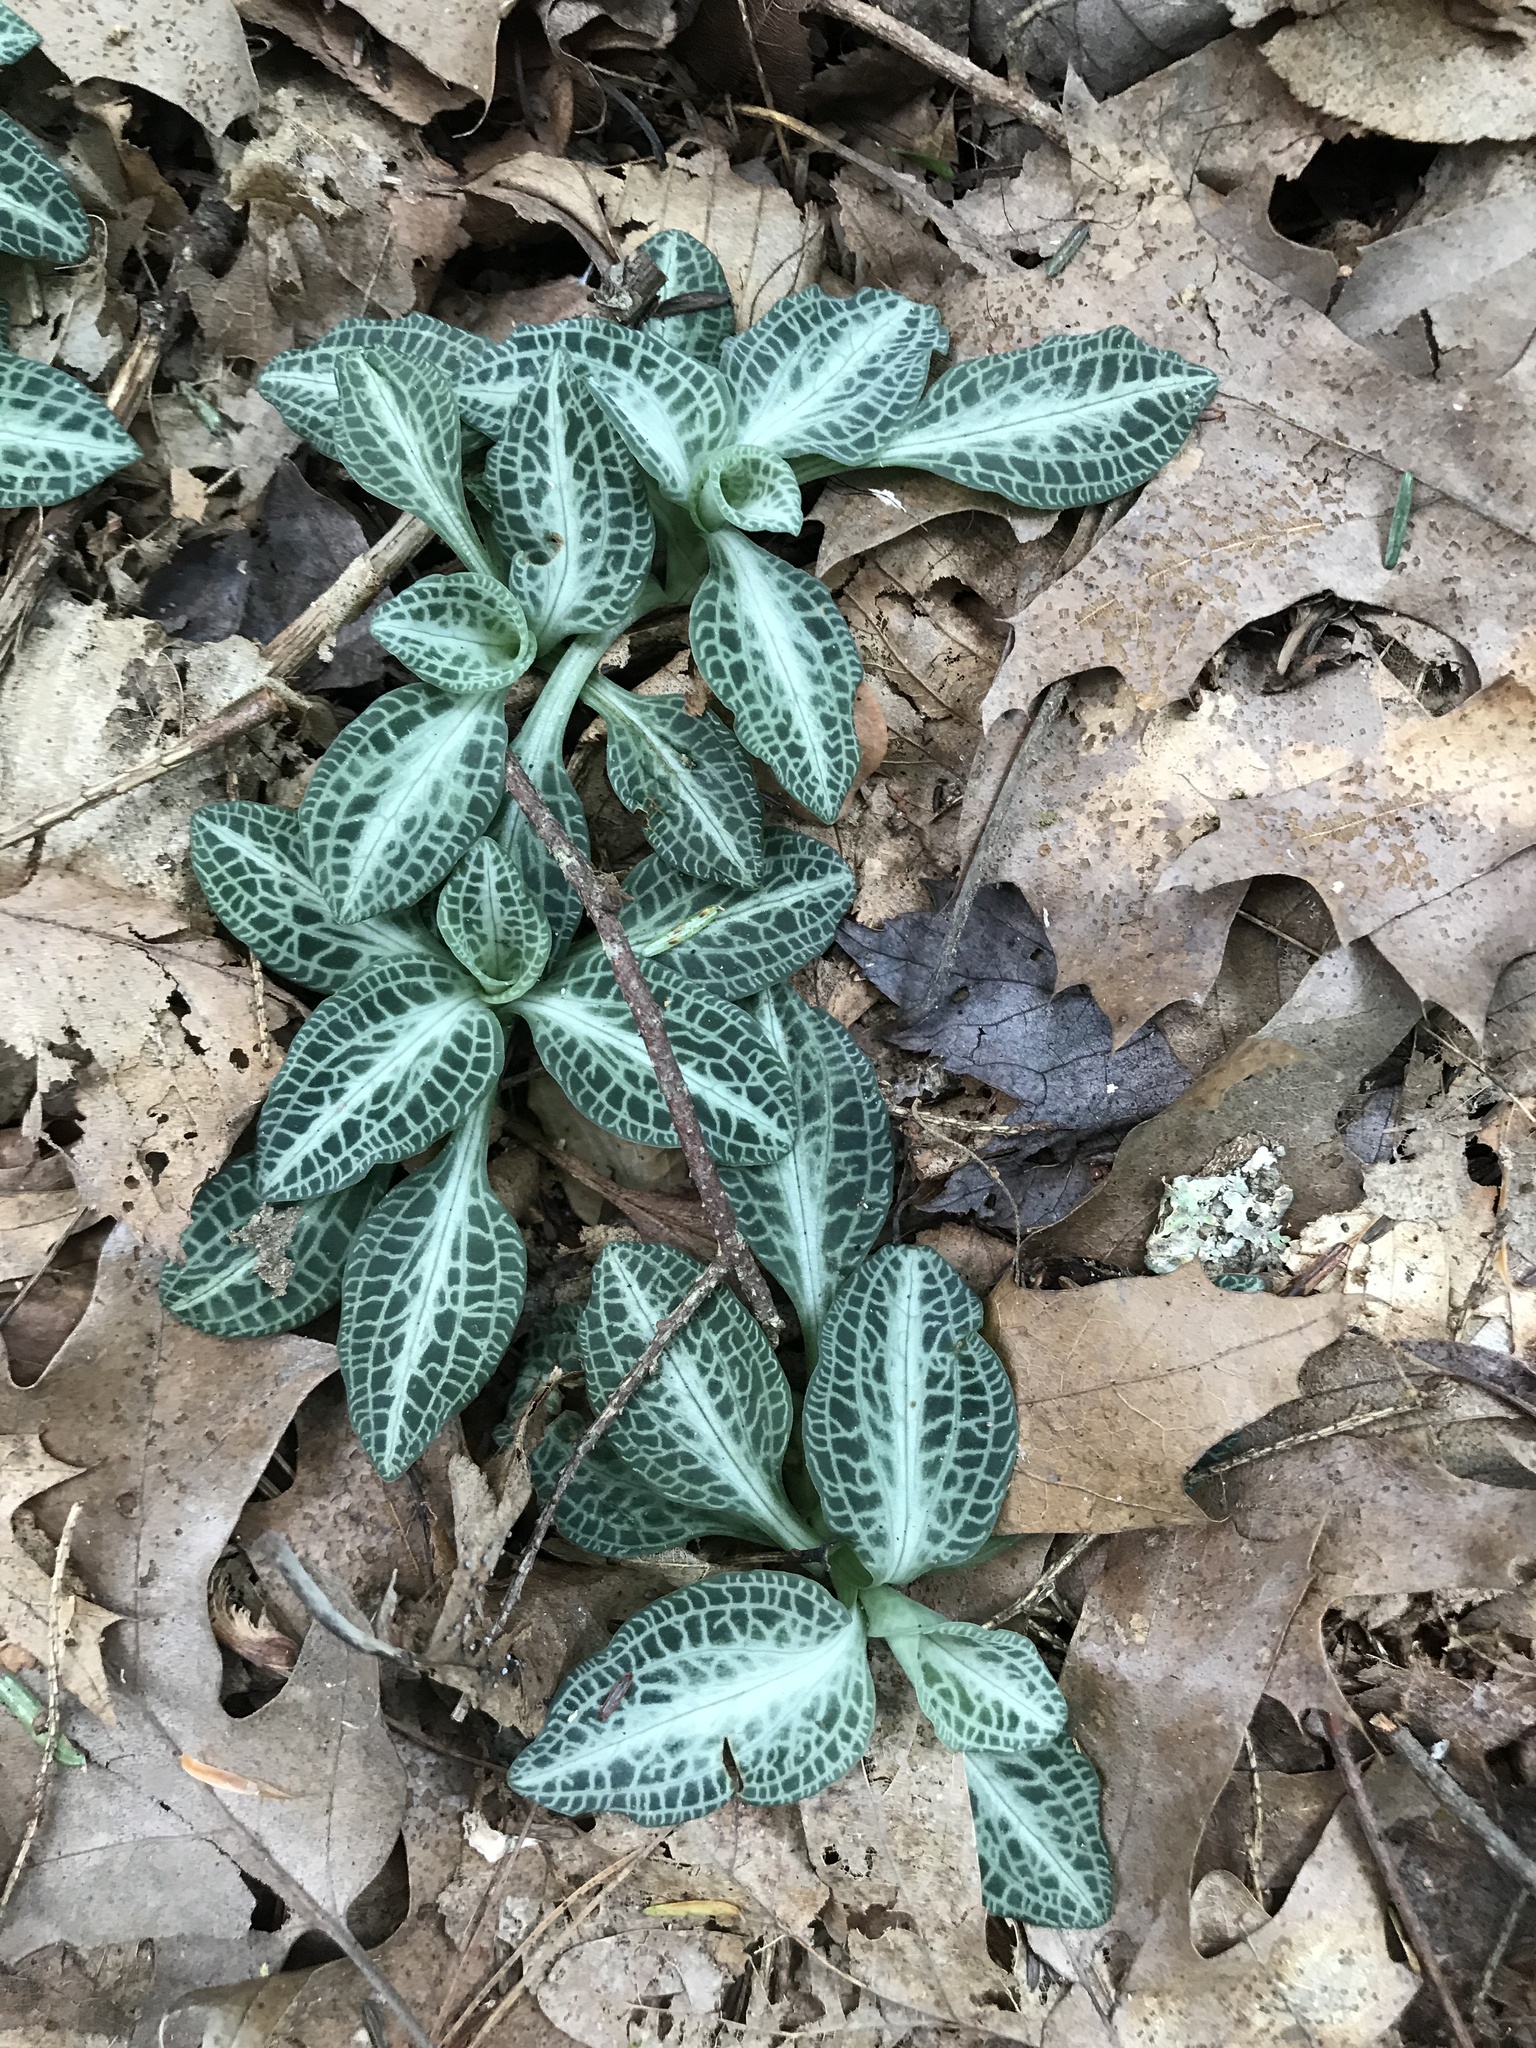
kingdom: Plantae
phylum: Tracheophyta
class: Liliopsida
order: Asparagales
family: Orchidaceae
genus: Goodyera
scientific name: Goodyera pubescens
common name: Downy rattlesnake-plantain
